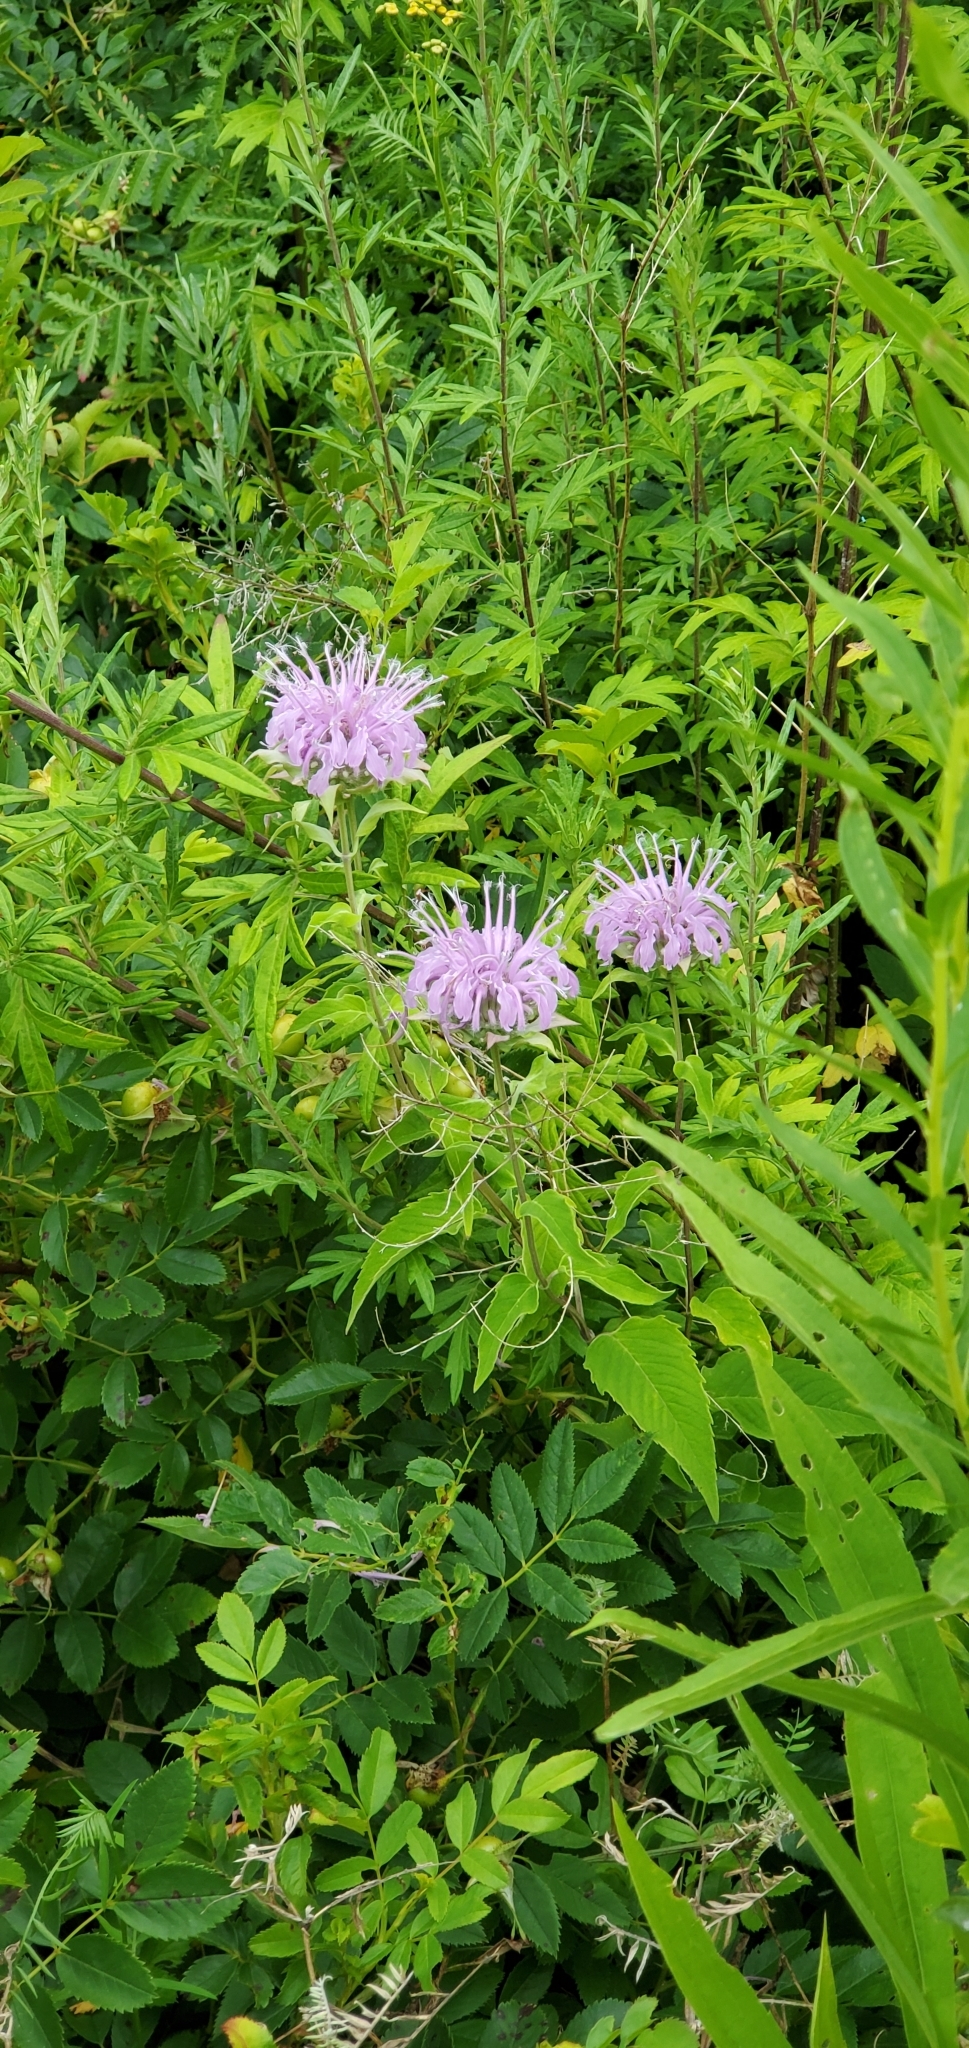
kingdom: Plantae
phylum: Tracheophyta
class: Magnoliopsida
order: Lamiales
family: Lamiaceae
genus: Monarda
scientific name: Monarda fistulosa
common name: Purple beebalm
